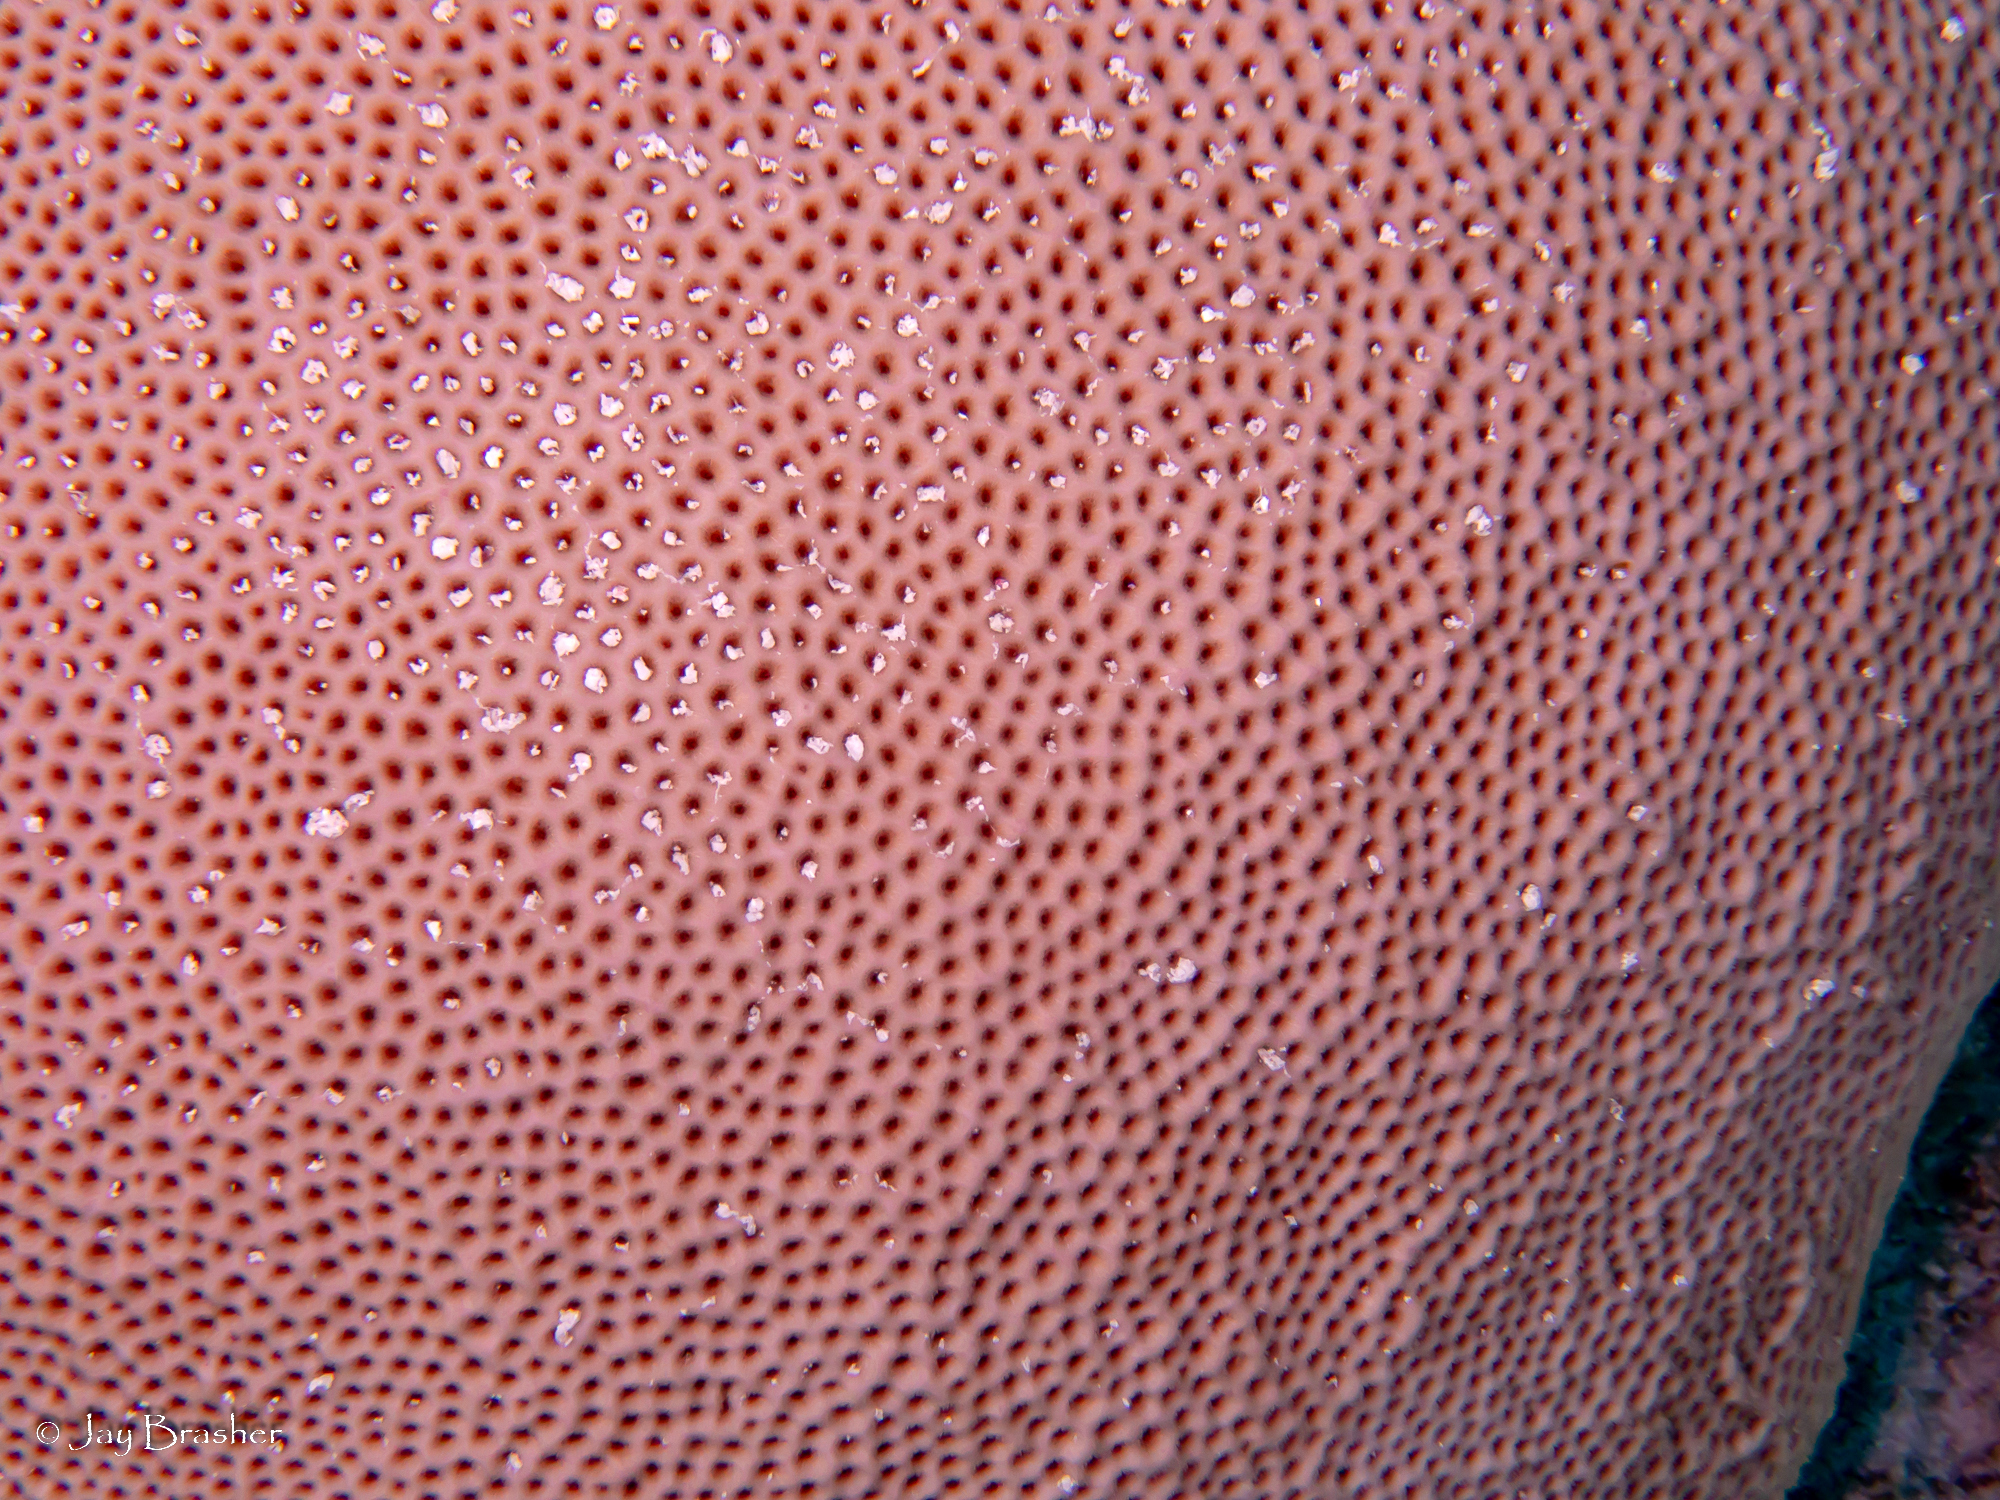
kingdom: Animalia
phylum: Cnidaria
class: Anthozoa
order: Scleractinia
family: Rhizangiidae
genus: Siderastrea
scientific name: Siderastrea siderea
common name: Massive starlet coral
